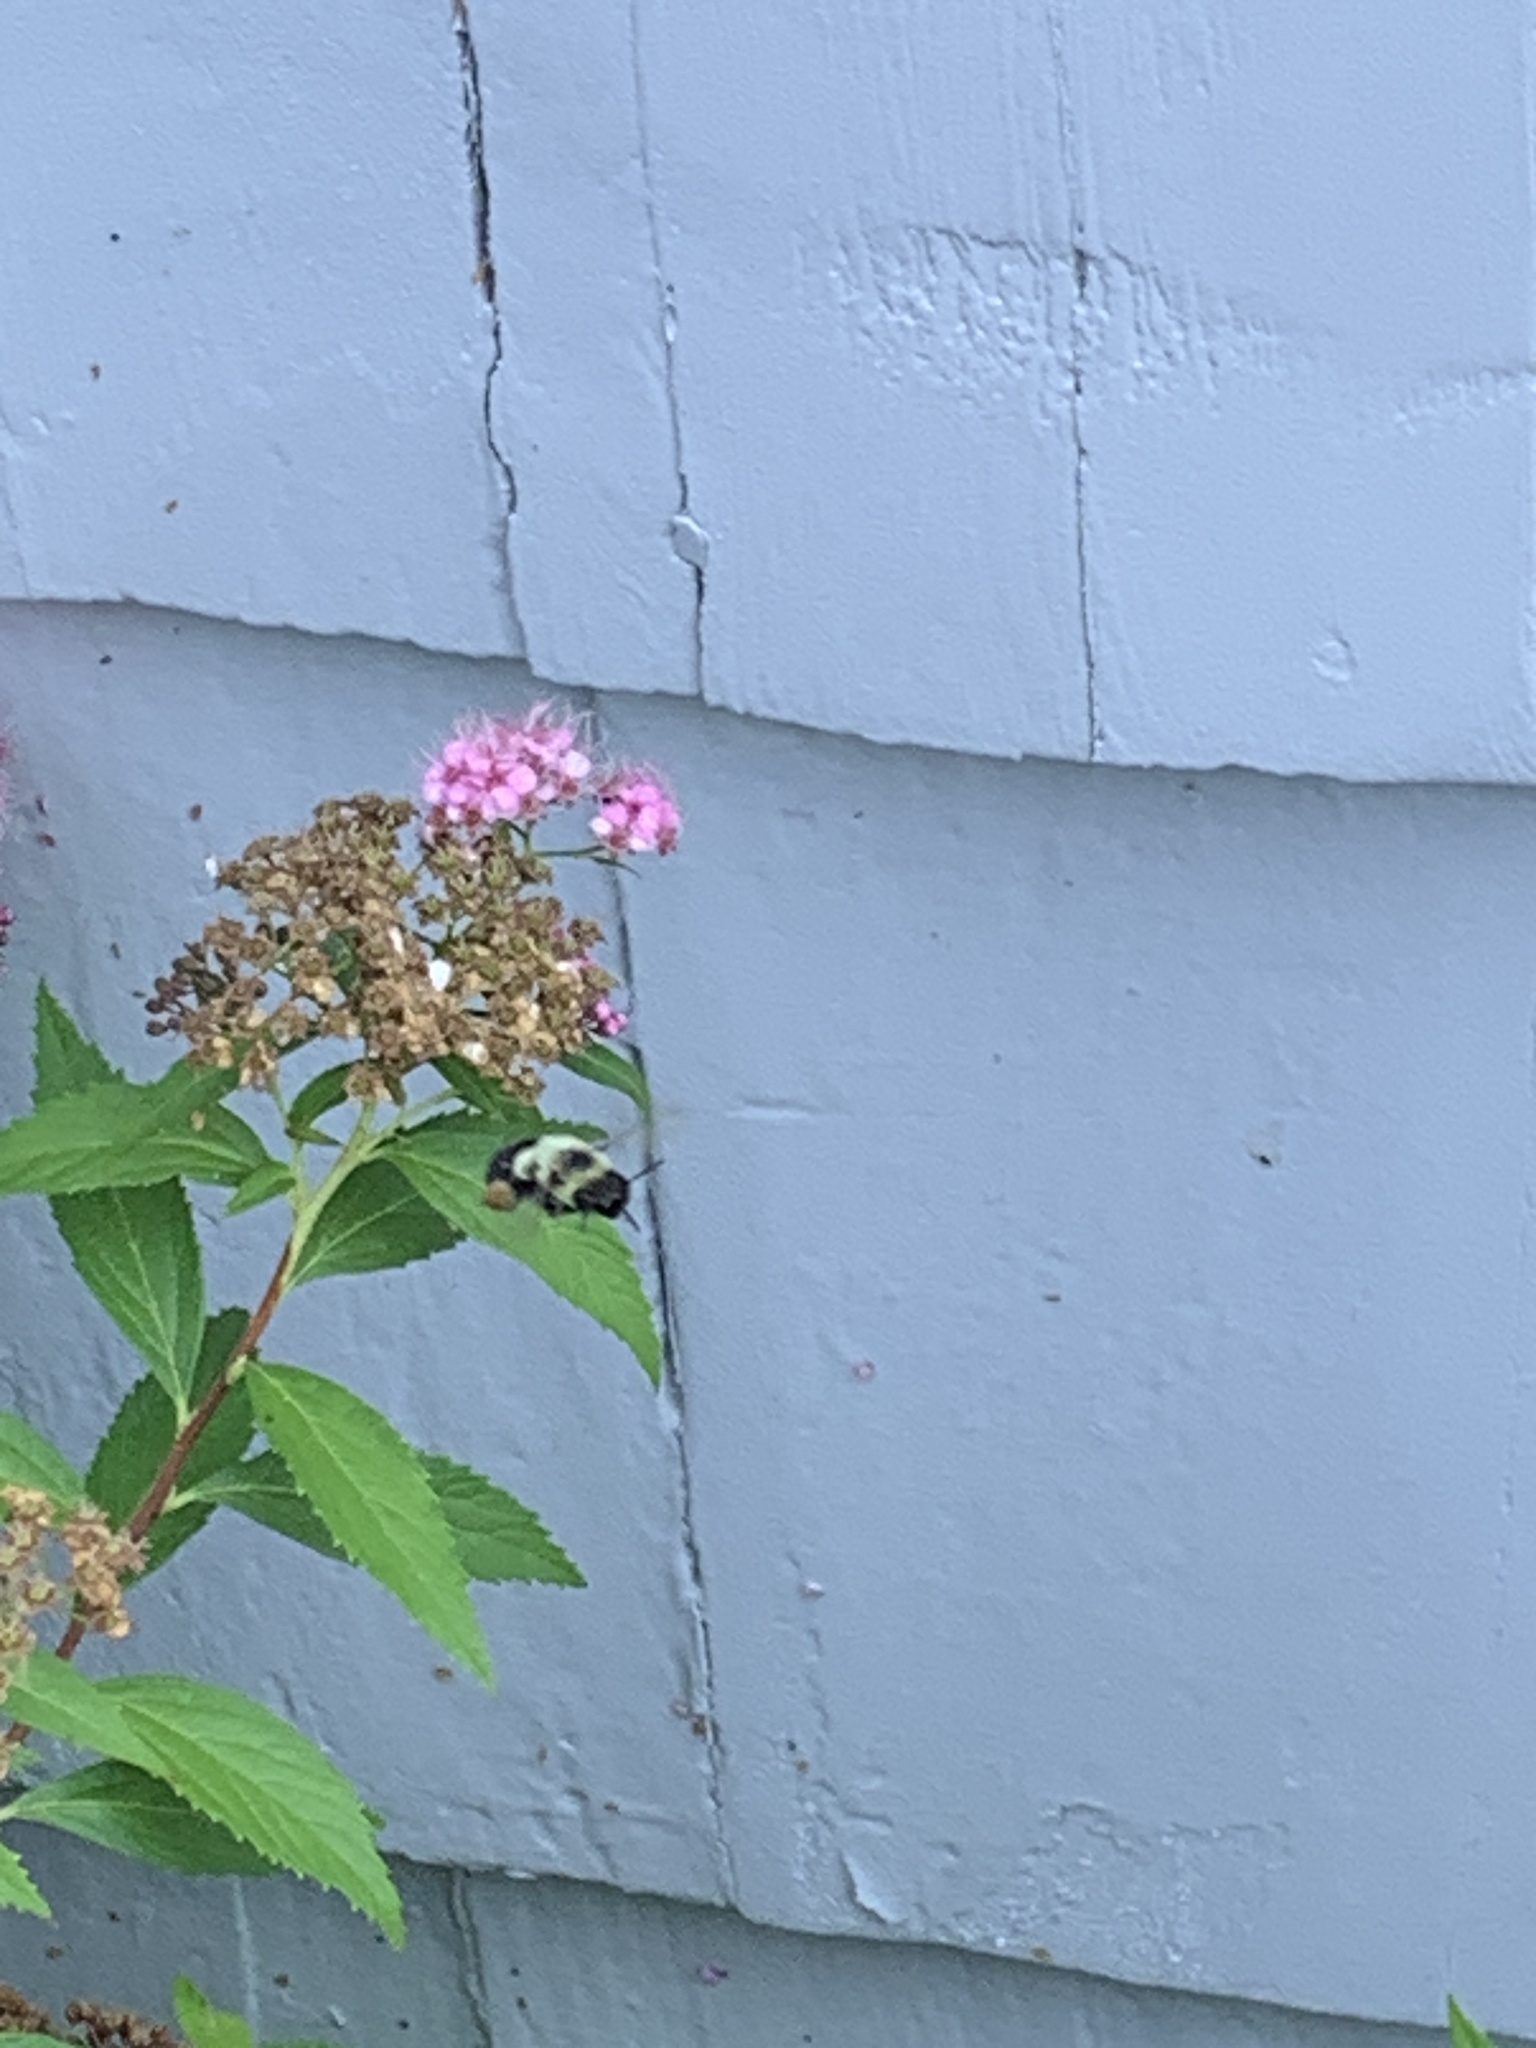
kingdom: Animalia
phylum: Arthropoda
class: Insecta
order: Hymenoptera
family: Apidae
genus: Bombus
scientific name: Bombus impatiens
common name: Common eastern bumble bee
